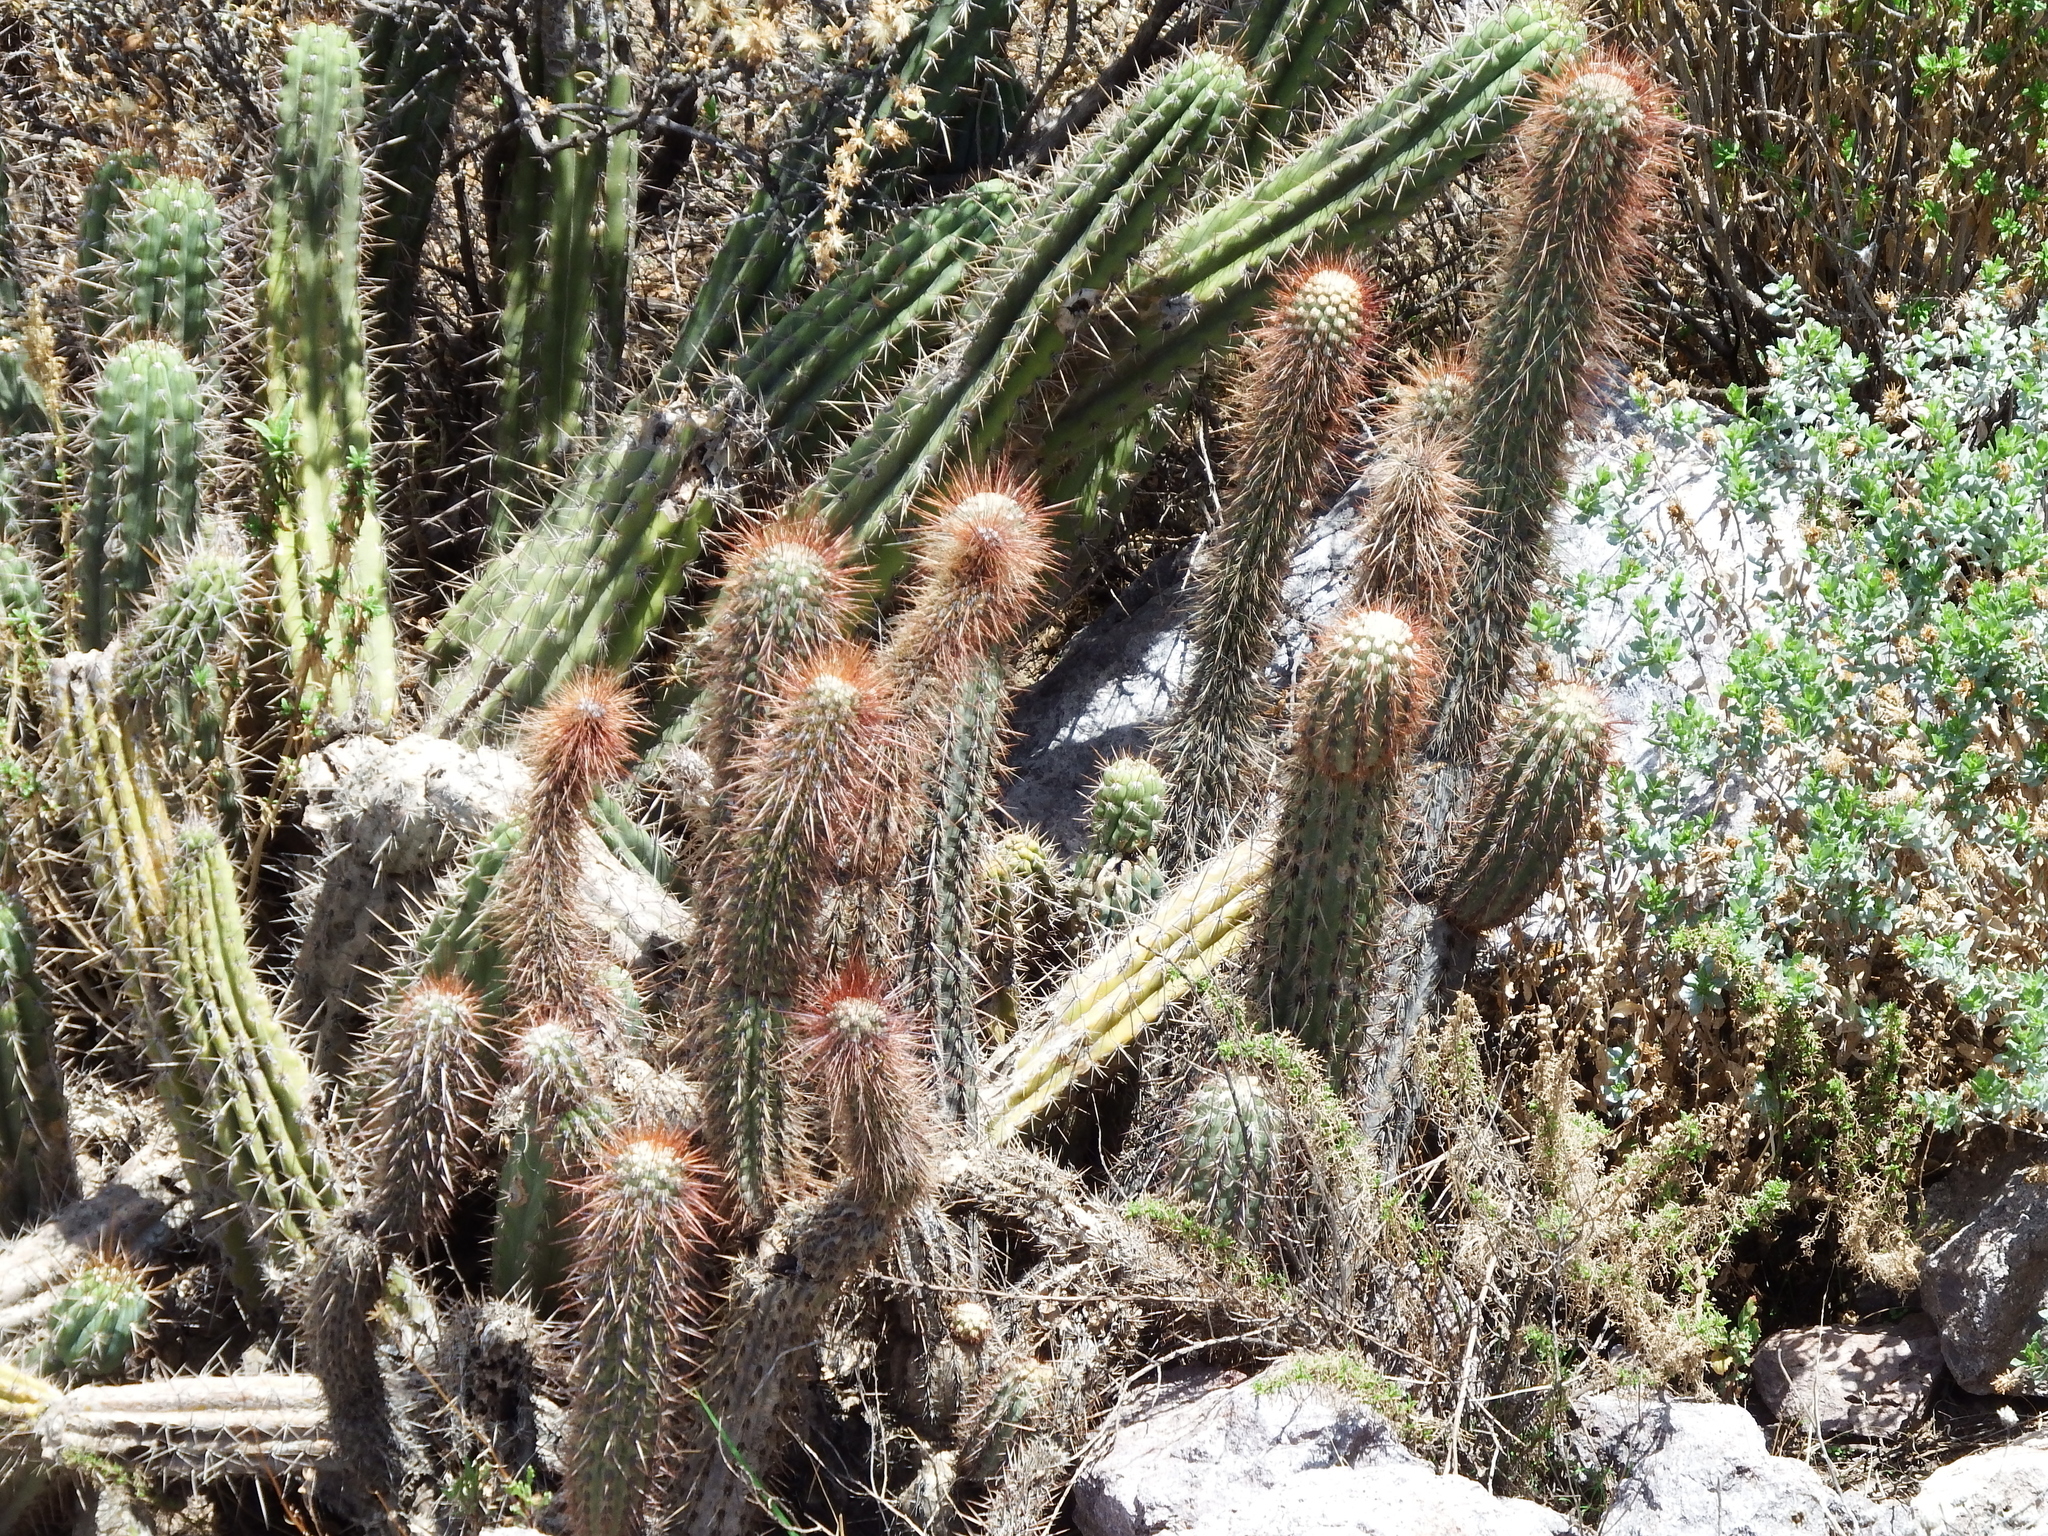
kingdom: Plantae
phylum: Tracheophyta
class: Magnoliopsida
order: Caryophyllales
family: Cactaceae
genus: Weberbauerocereus
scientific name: Weberbauerocereus weberbaueri
